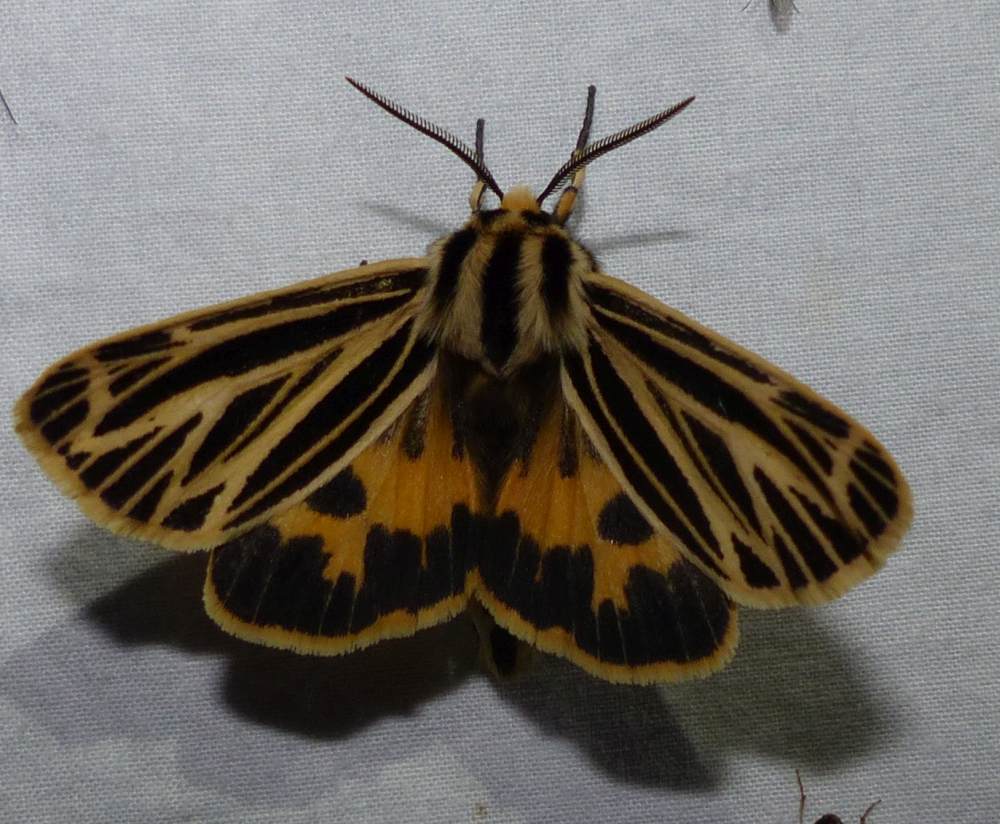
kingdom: Animalia
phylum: Arthropoda
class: Insecta
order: Lepidoptera
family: Erebidae
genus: Grammia
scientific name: Grammia virguncula
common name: Little tiger moth
